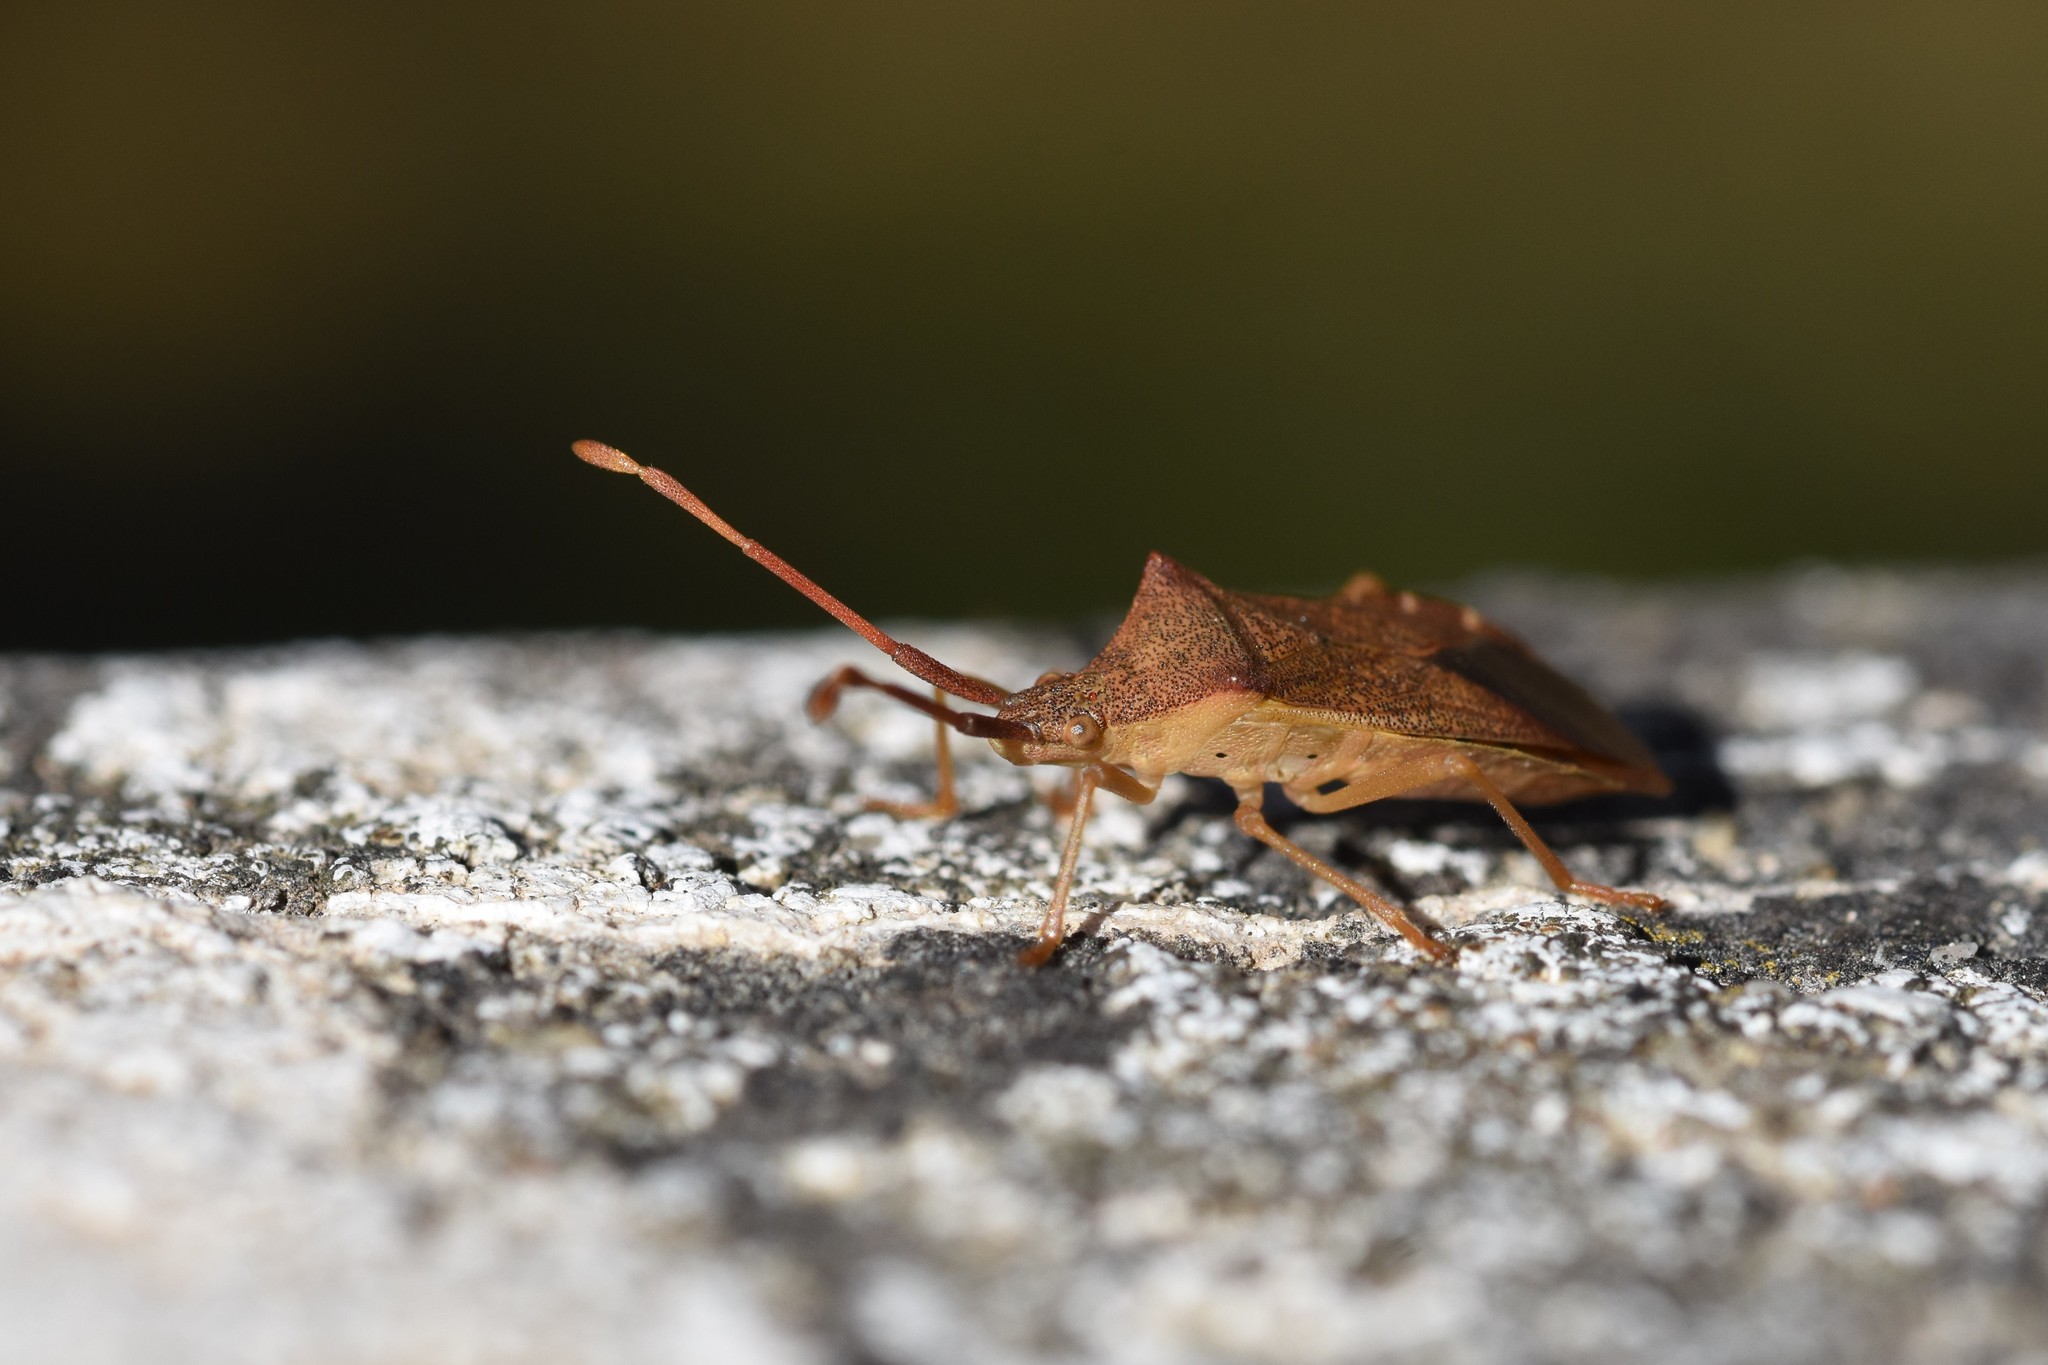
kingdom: Animalia
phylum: Arthropoda
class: Insecta
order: Hemiptera
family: Coreidae
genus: Gonocerus
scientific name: Gonocerus acuteangulatus
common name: Box bug
